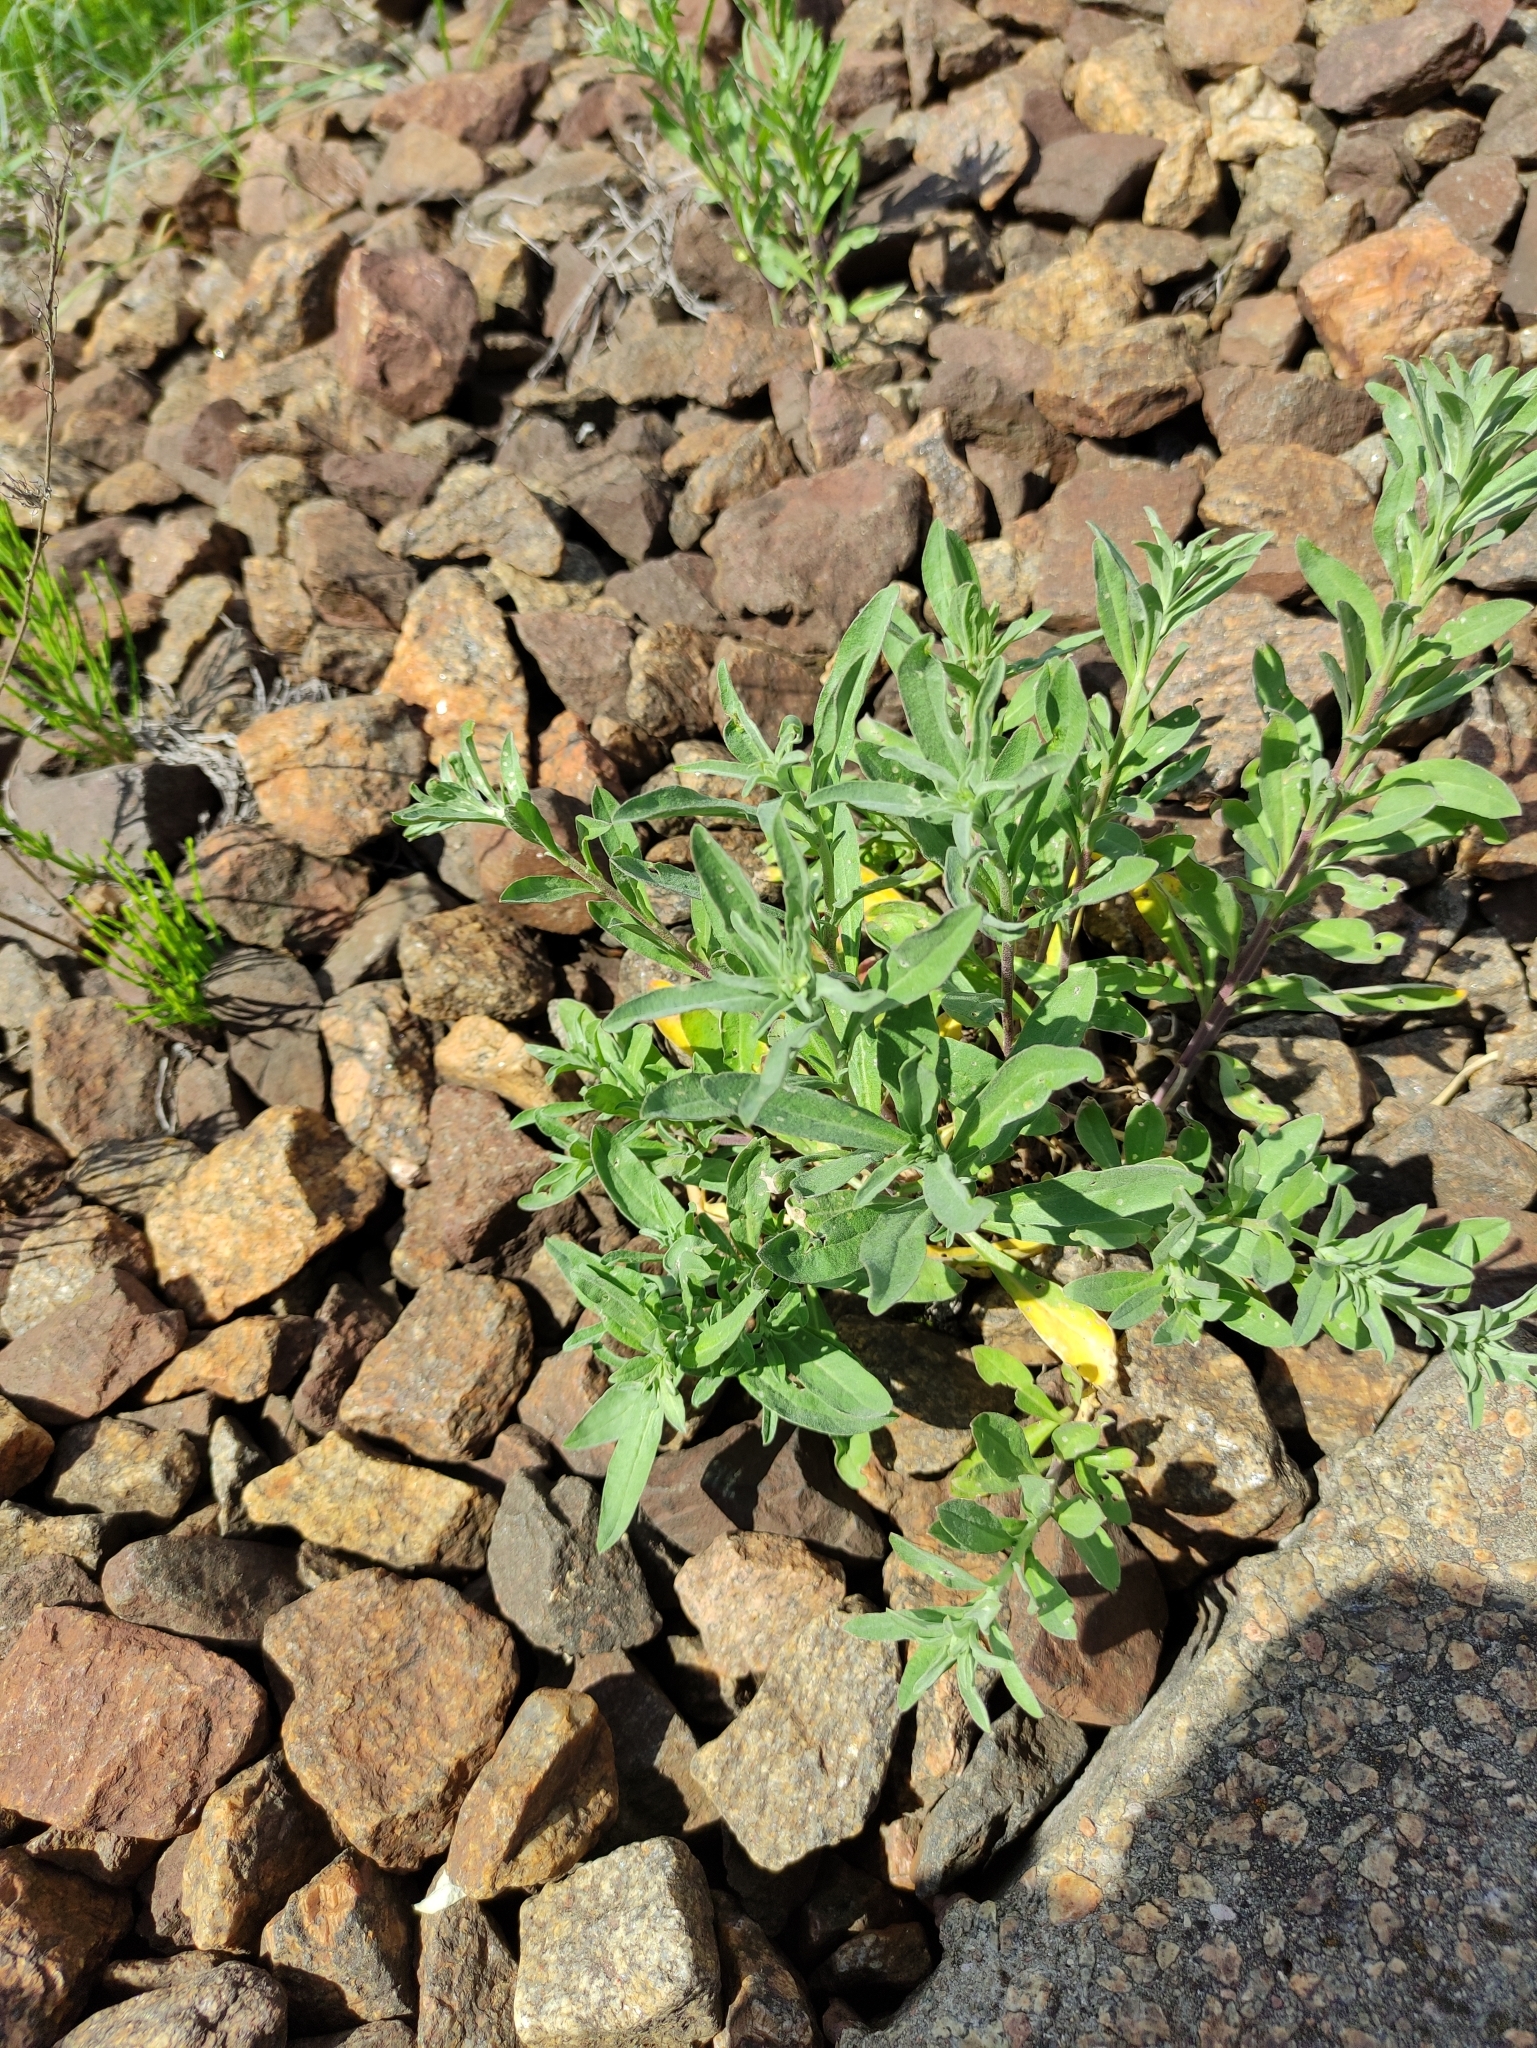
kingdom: Plantae
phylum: Tracheophyta
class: Magnoliopsida
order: Brassicales
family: Brassicaceae
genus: Berteroa
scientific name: Berteroa incana
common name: Hoary alison
